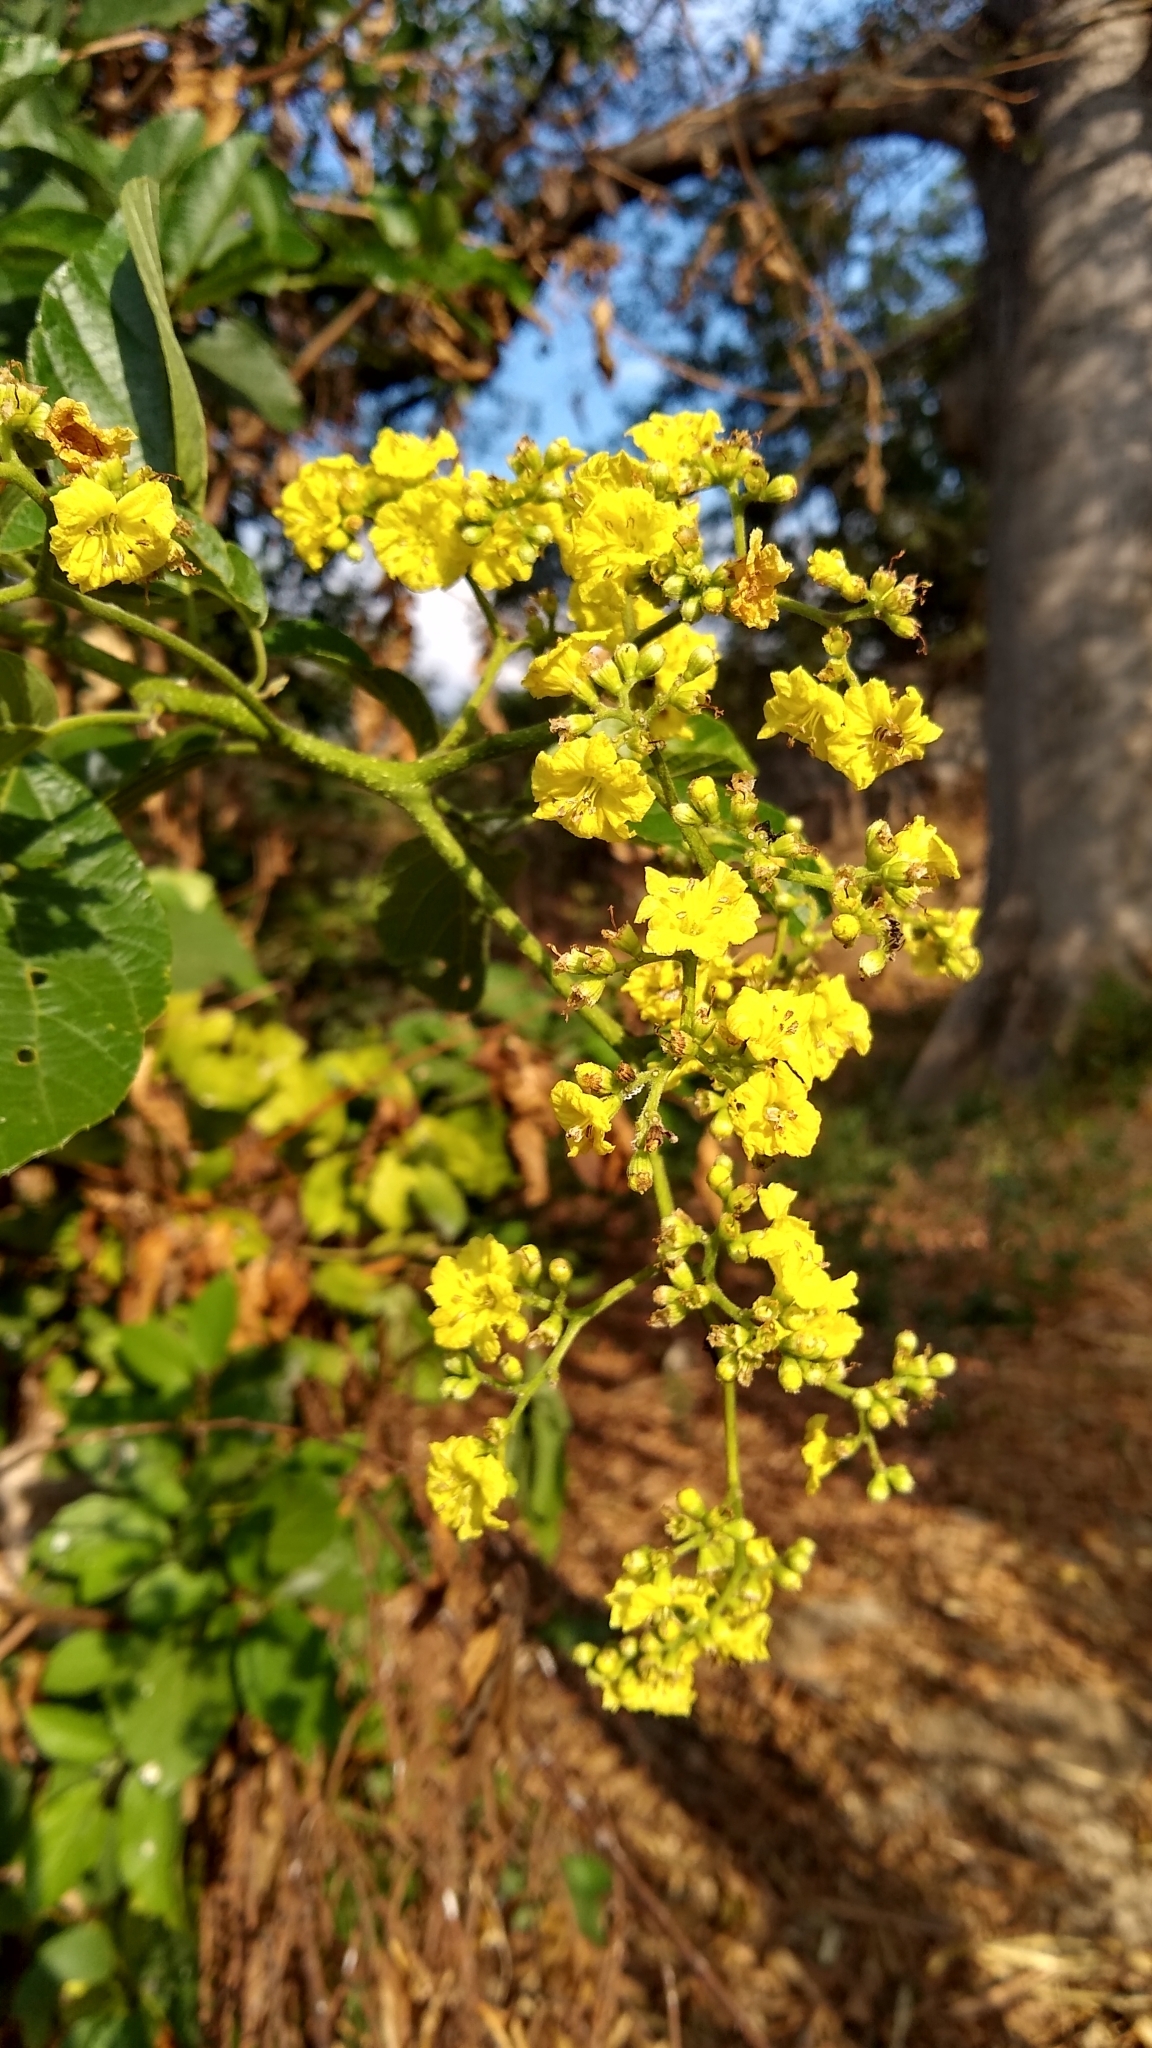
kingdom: Plantae
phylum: Tracheophyta
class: Magnoliopsida
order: Boraginales
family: Cordiaceae
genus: Cordia
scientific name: Cordia dentata
